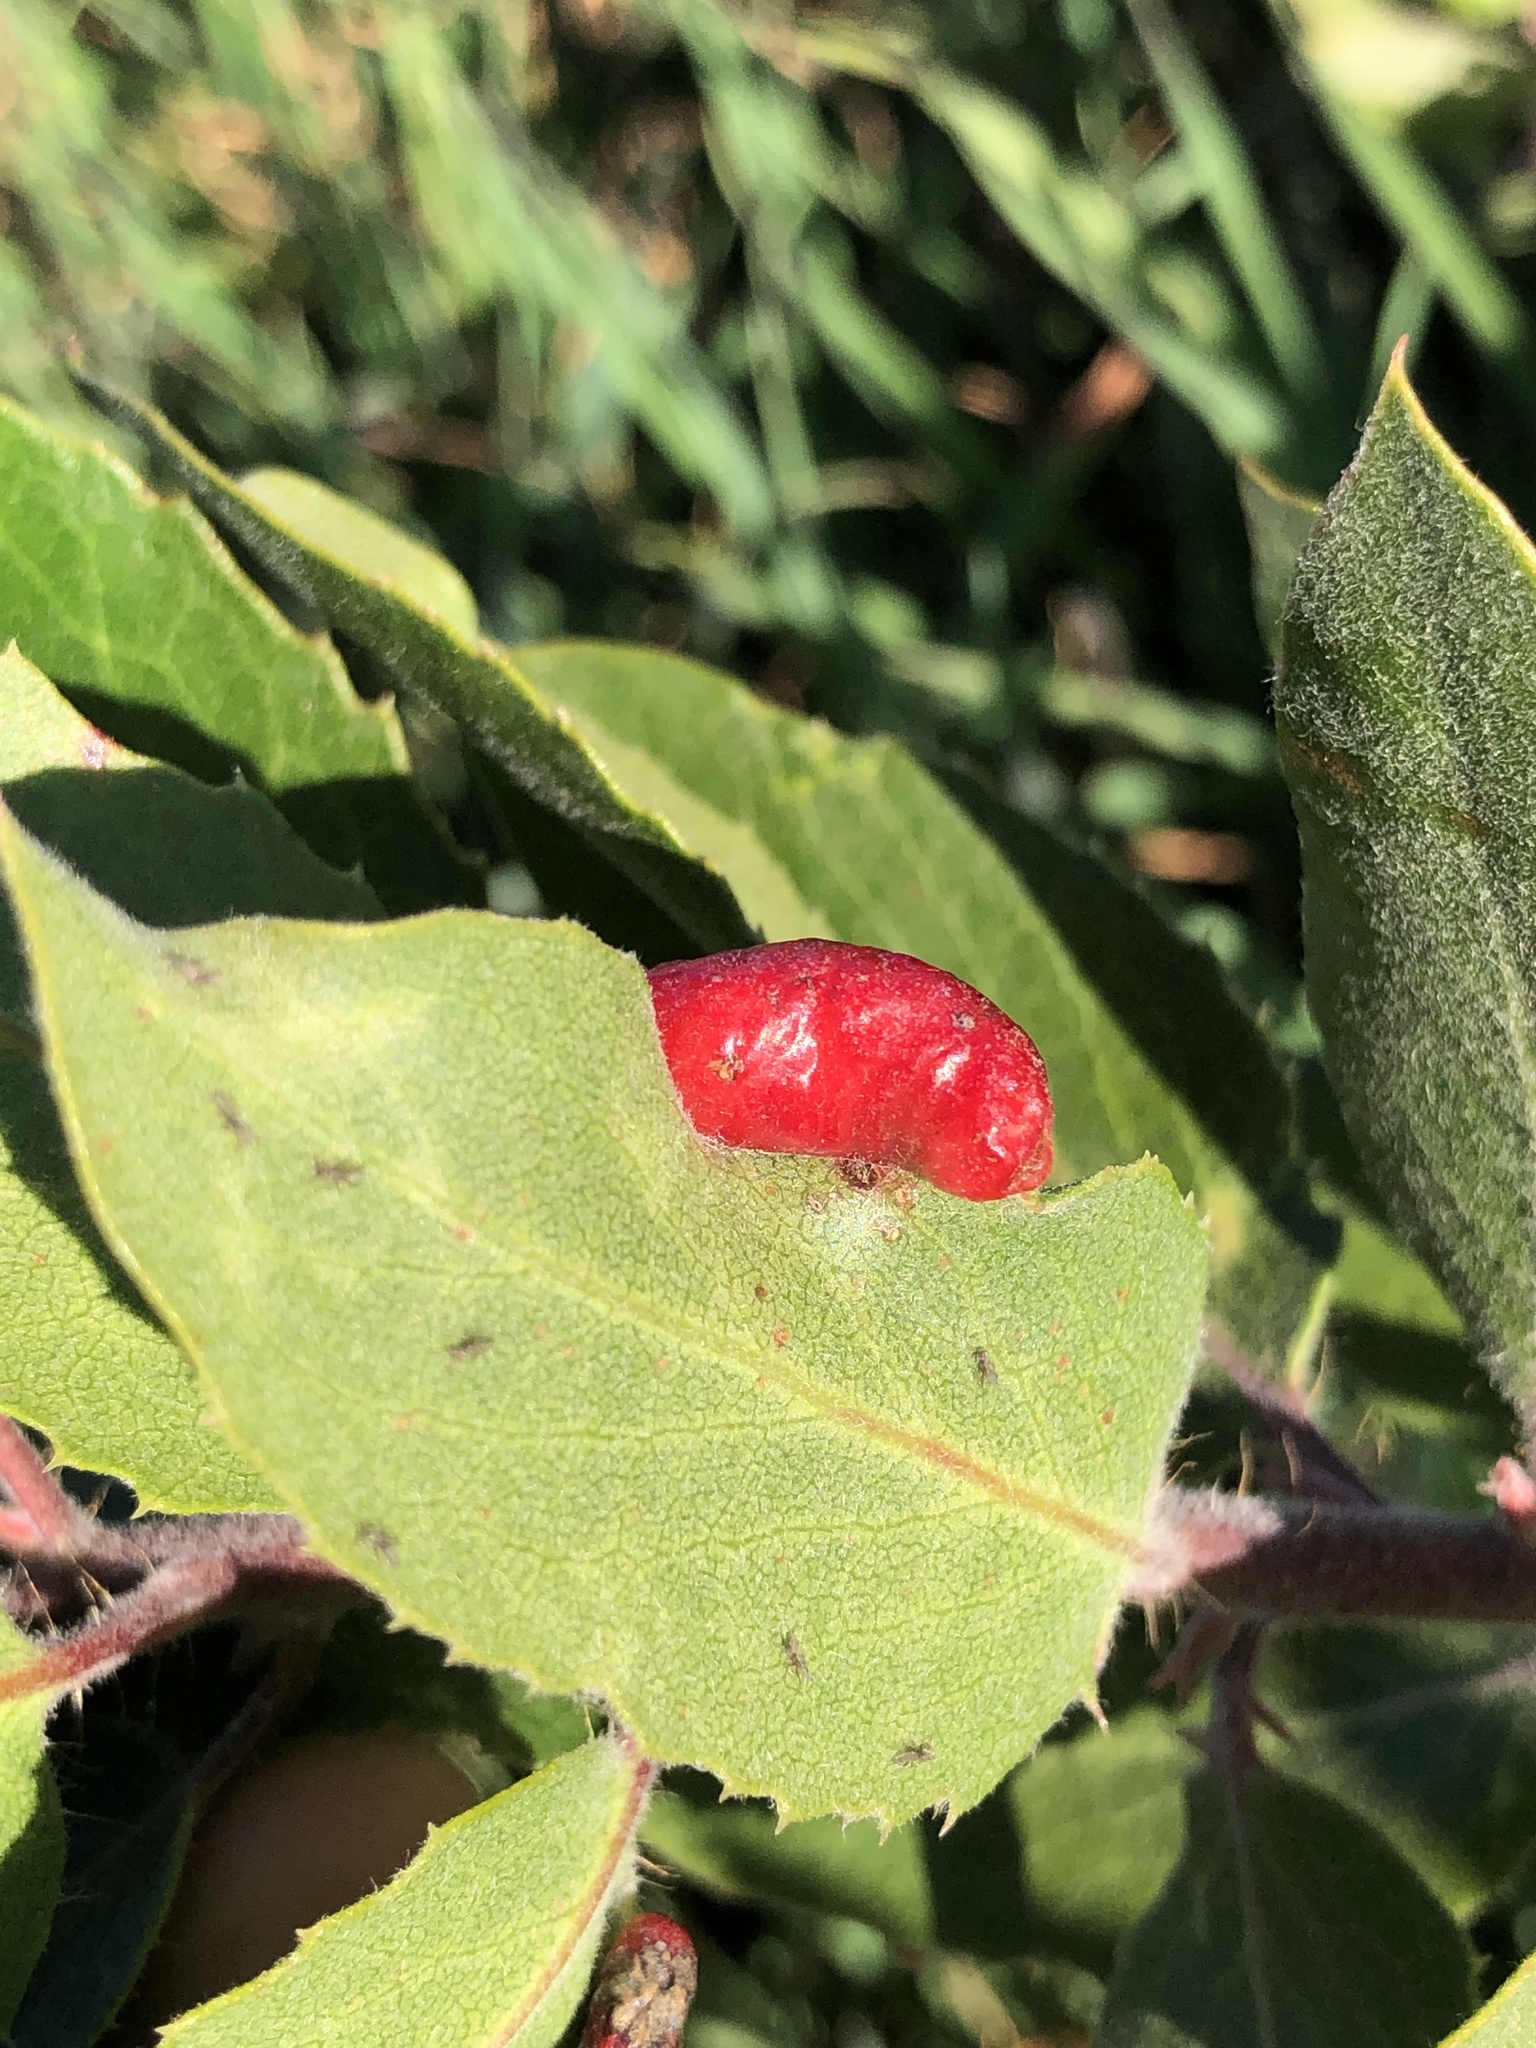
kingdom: Animalia
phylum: Arthropoda
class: Insecta
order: Hemiptera
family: Aphididae
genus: Tamalia
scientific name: Tamalia coweni
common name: Manzanita leafgall aphid
